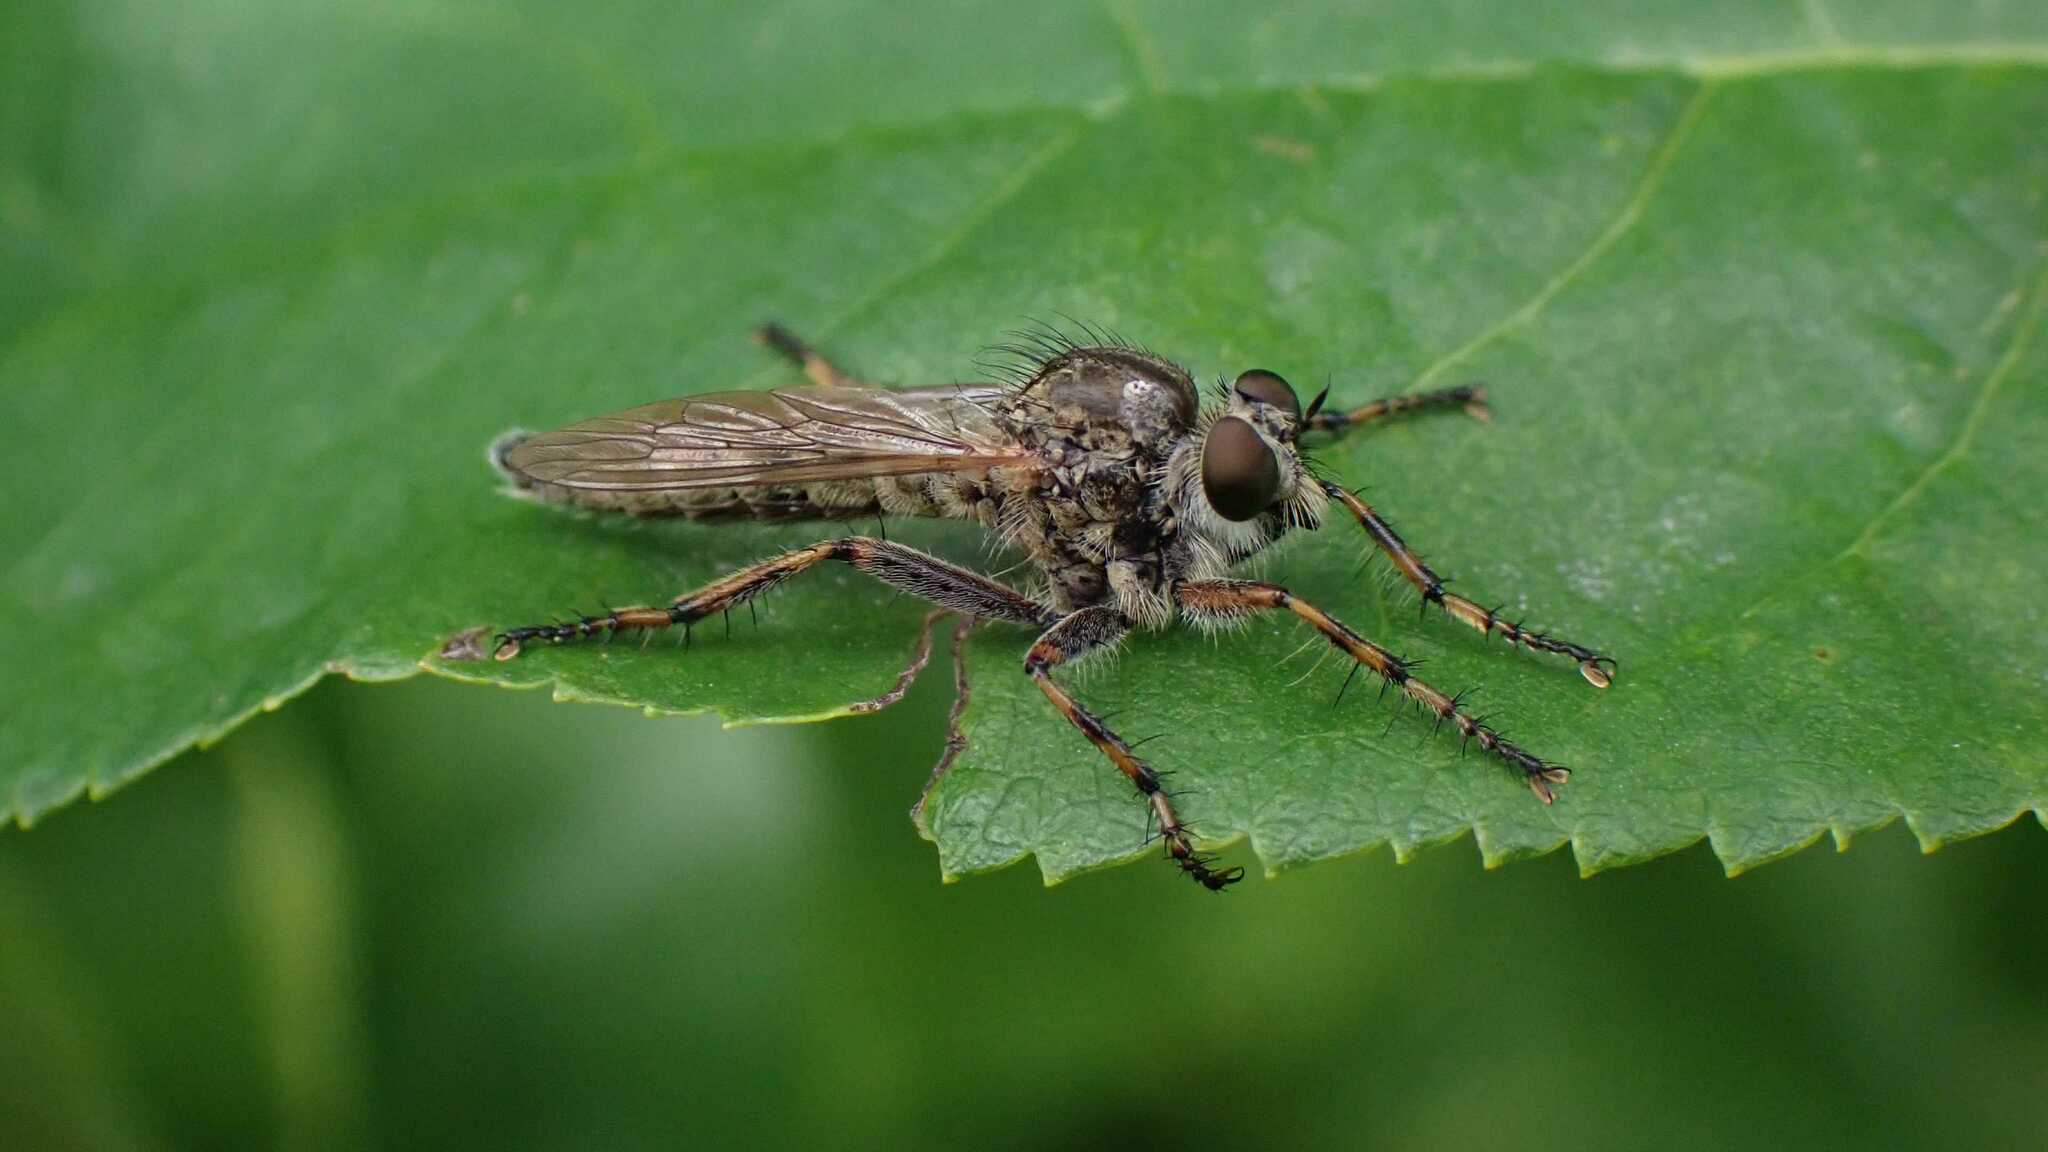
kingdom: Animalia
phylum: Arthropoda
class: Insecta
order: Diptera
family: Asilidae
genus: Epitriptus
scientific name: Epitriptus cingulatus
